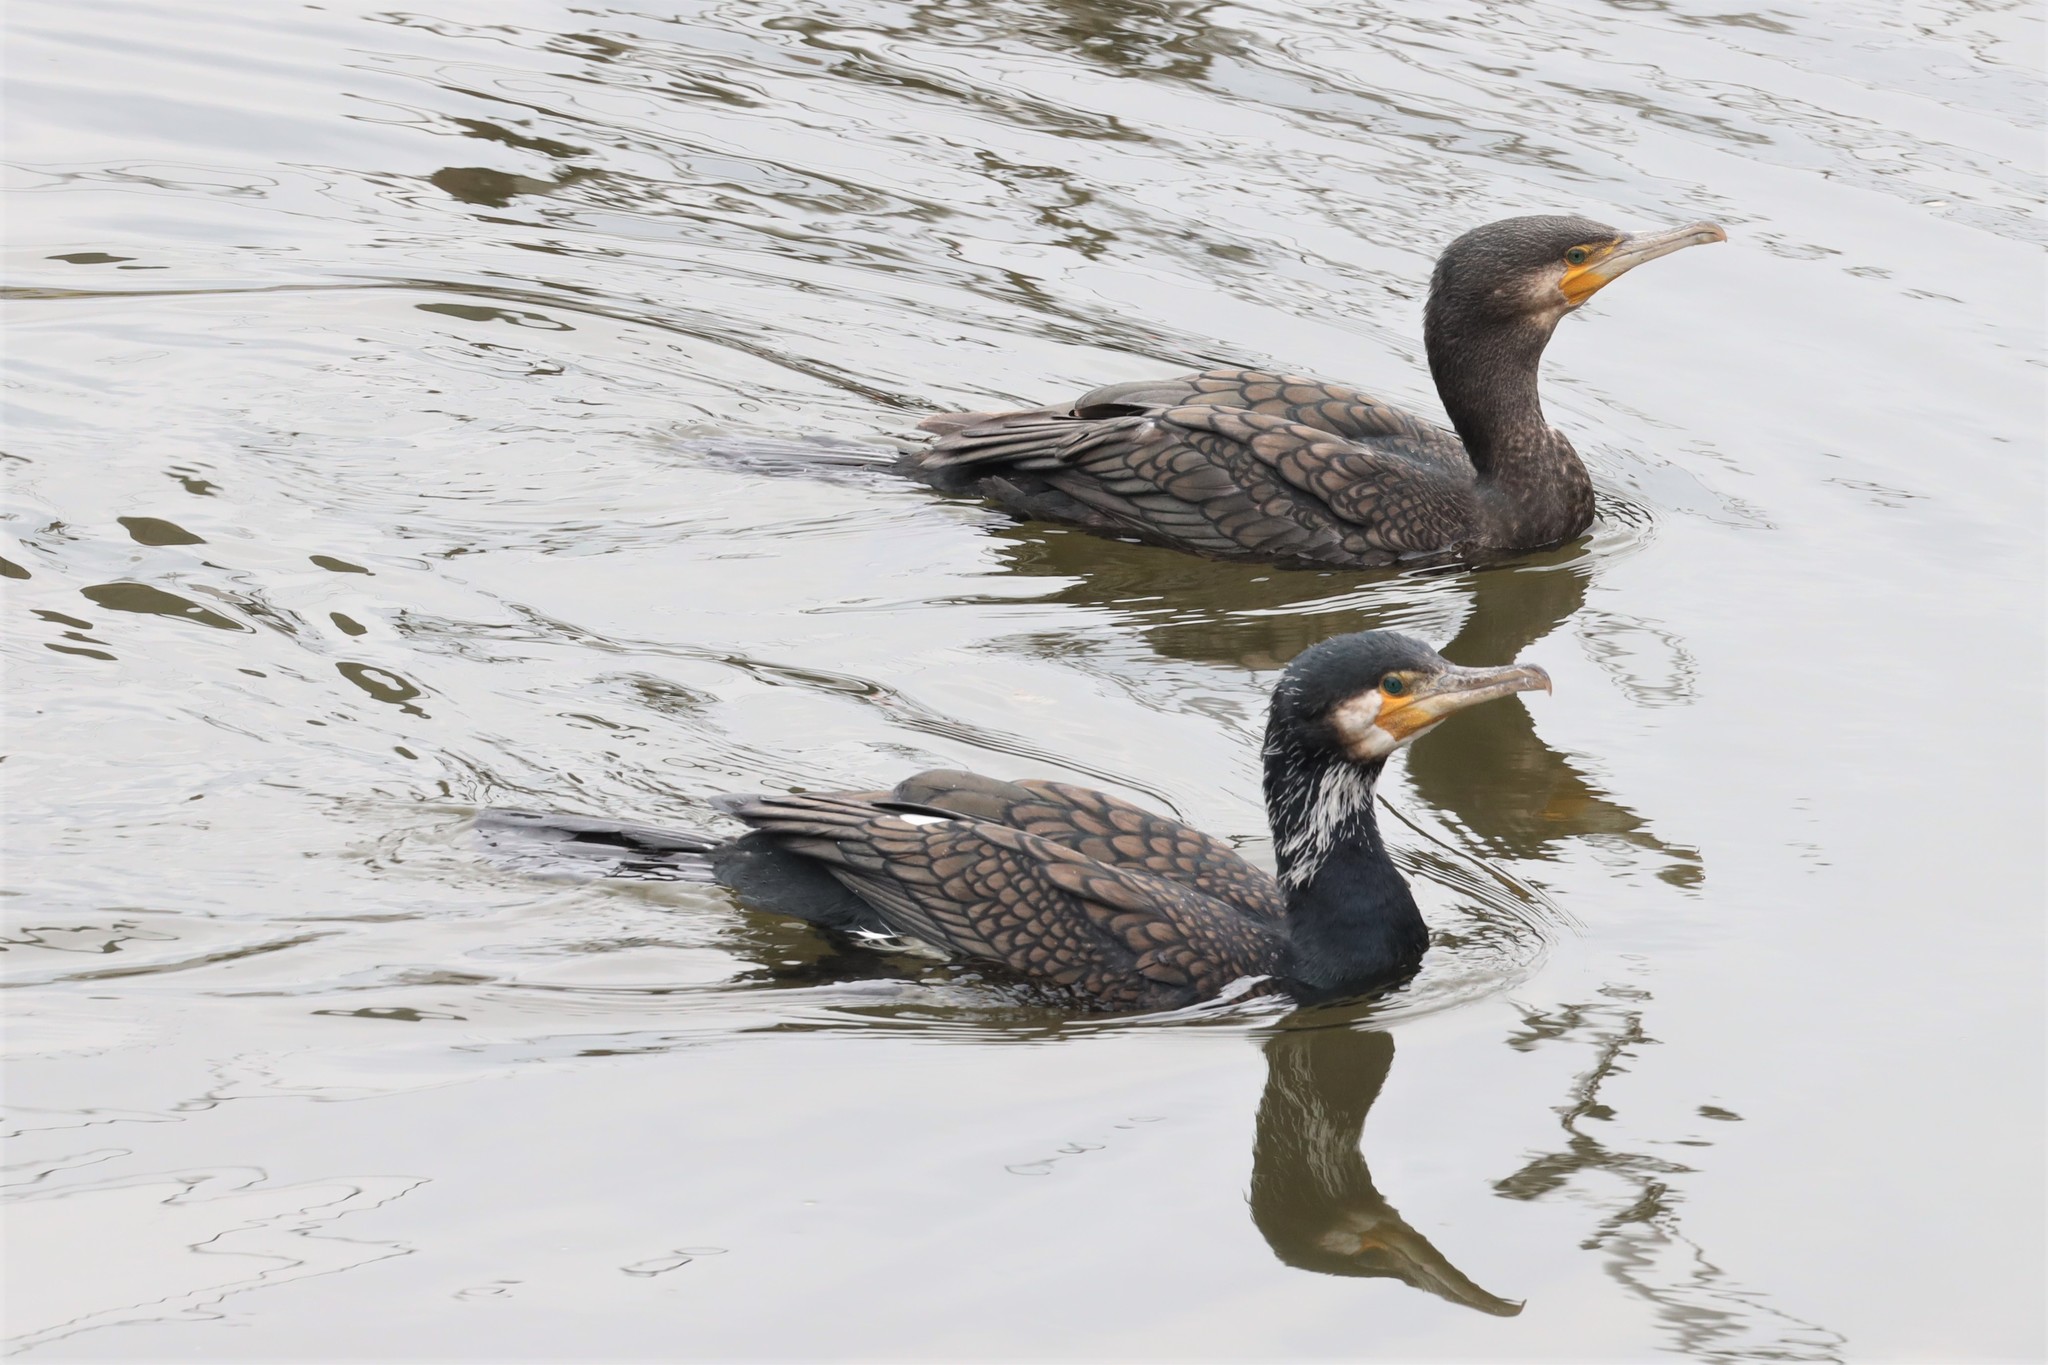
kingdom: Animalia
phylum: Chordata
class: Aves
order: Suliformes
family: Phalacrocoracidae
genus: Phalacrocorax
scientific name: Phalacrocorax carbo
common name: Great cormorant
